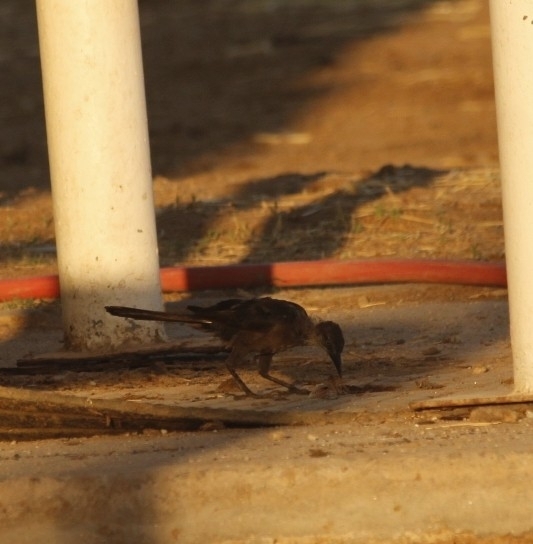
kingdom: Animalia
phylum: Chordata
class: Aves
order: Passeriformes
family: Icteridae
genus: Quiscalus
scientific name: Quiscalus mexicanus
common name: Great-tailed grackle
